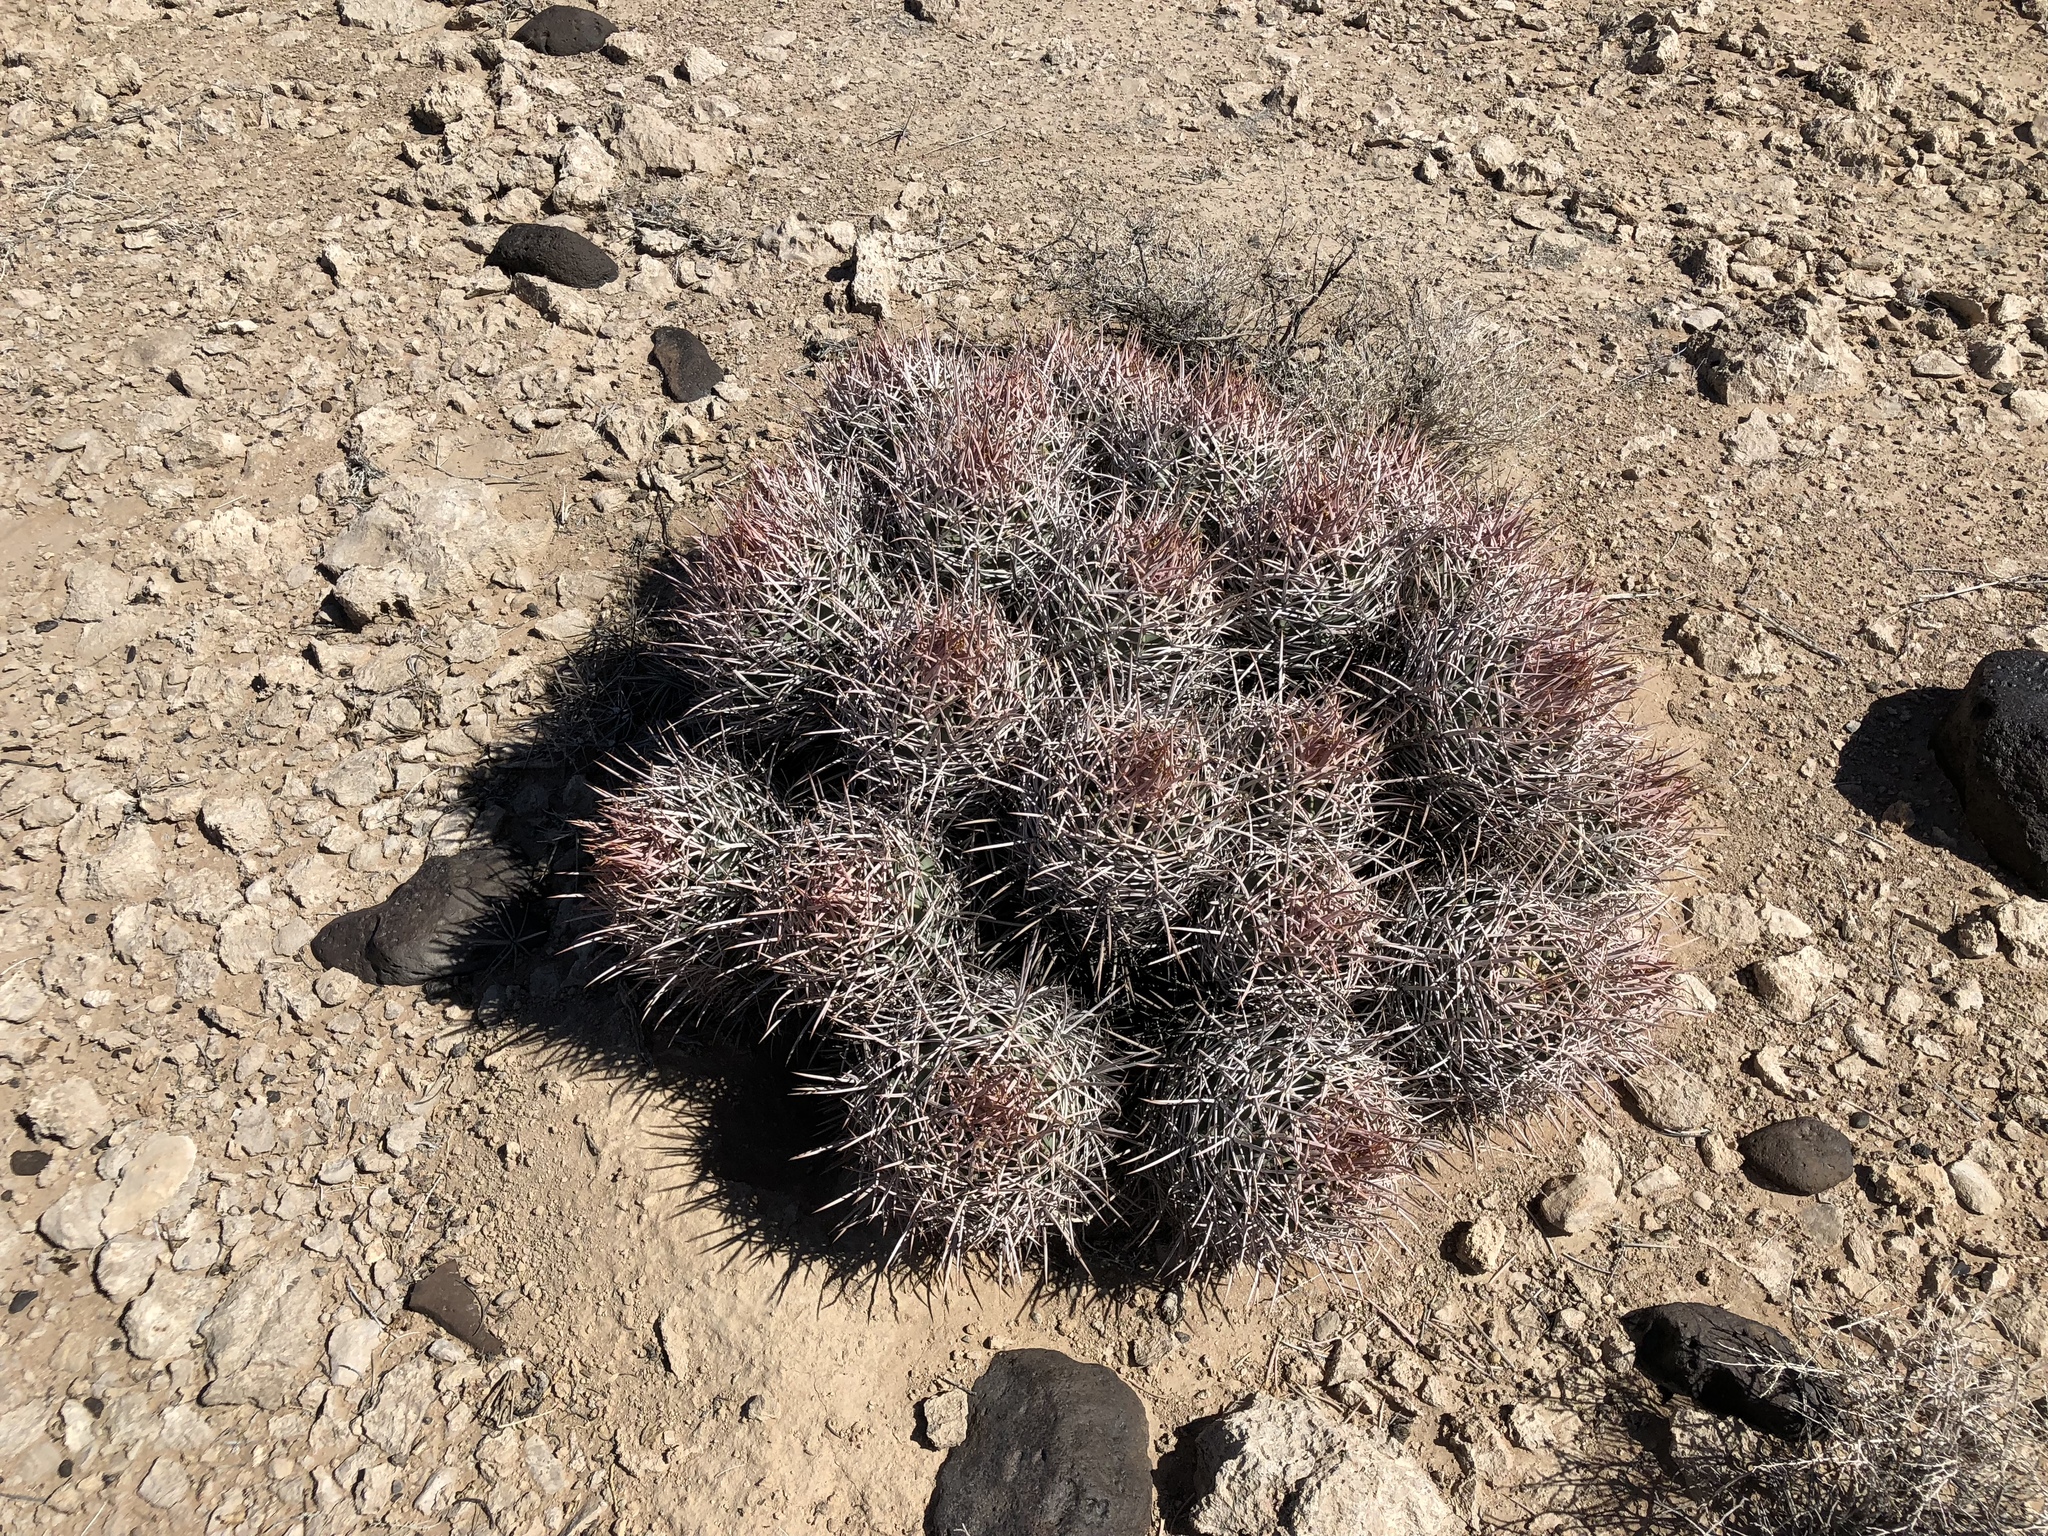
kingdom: Plantae
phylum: Tracheophyta
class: Magnoliopsida
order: Caryophyllales
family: Cactaceae
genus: Echinocactus
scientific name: Echinocactus polycephalus
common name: Cottontop cactus
